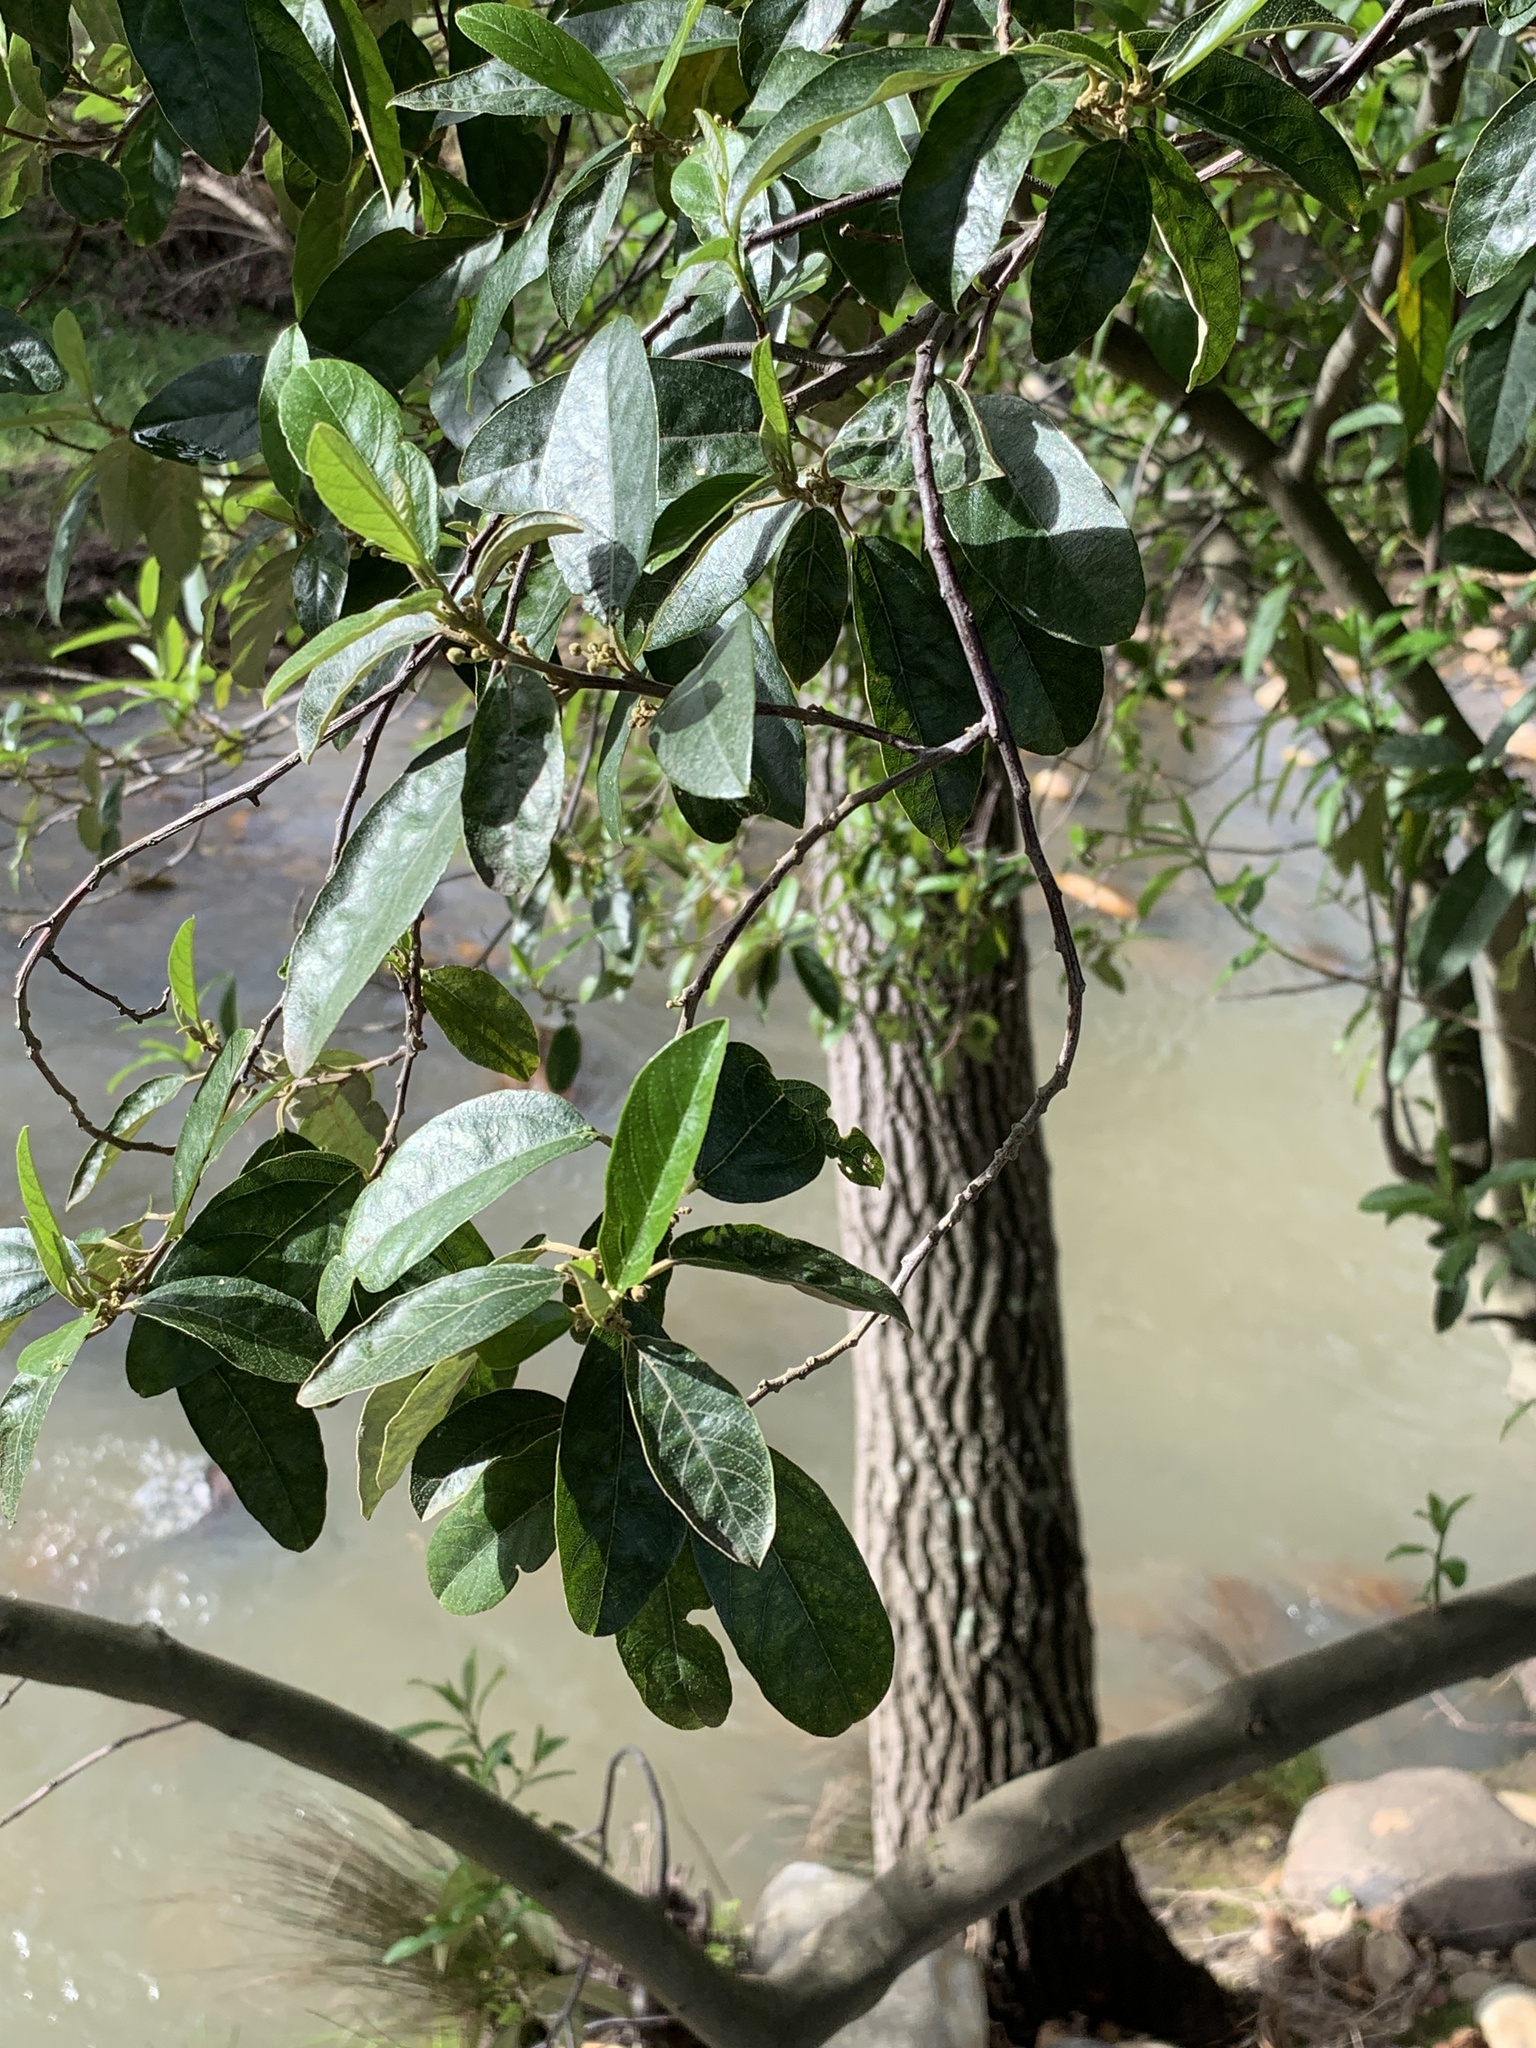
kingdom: Plantae
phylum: Tracheophyta
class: Magnoliopsida
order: Malpighiales
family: Achariaceae
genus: Kiggelaria
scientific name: Kiggelaria africana
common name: Wild peach
